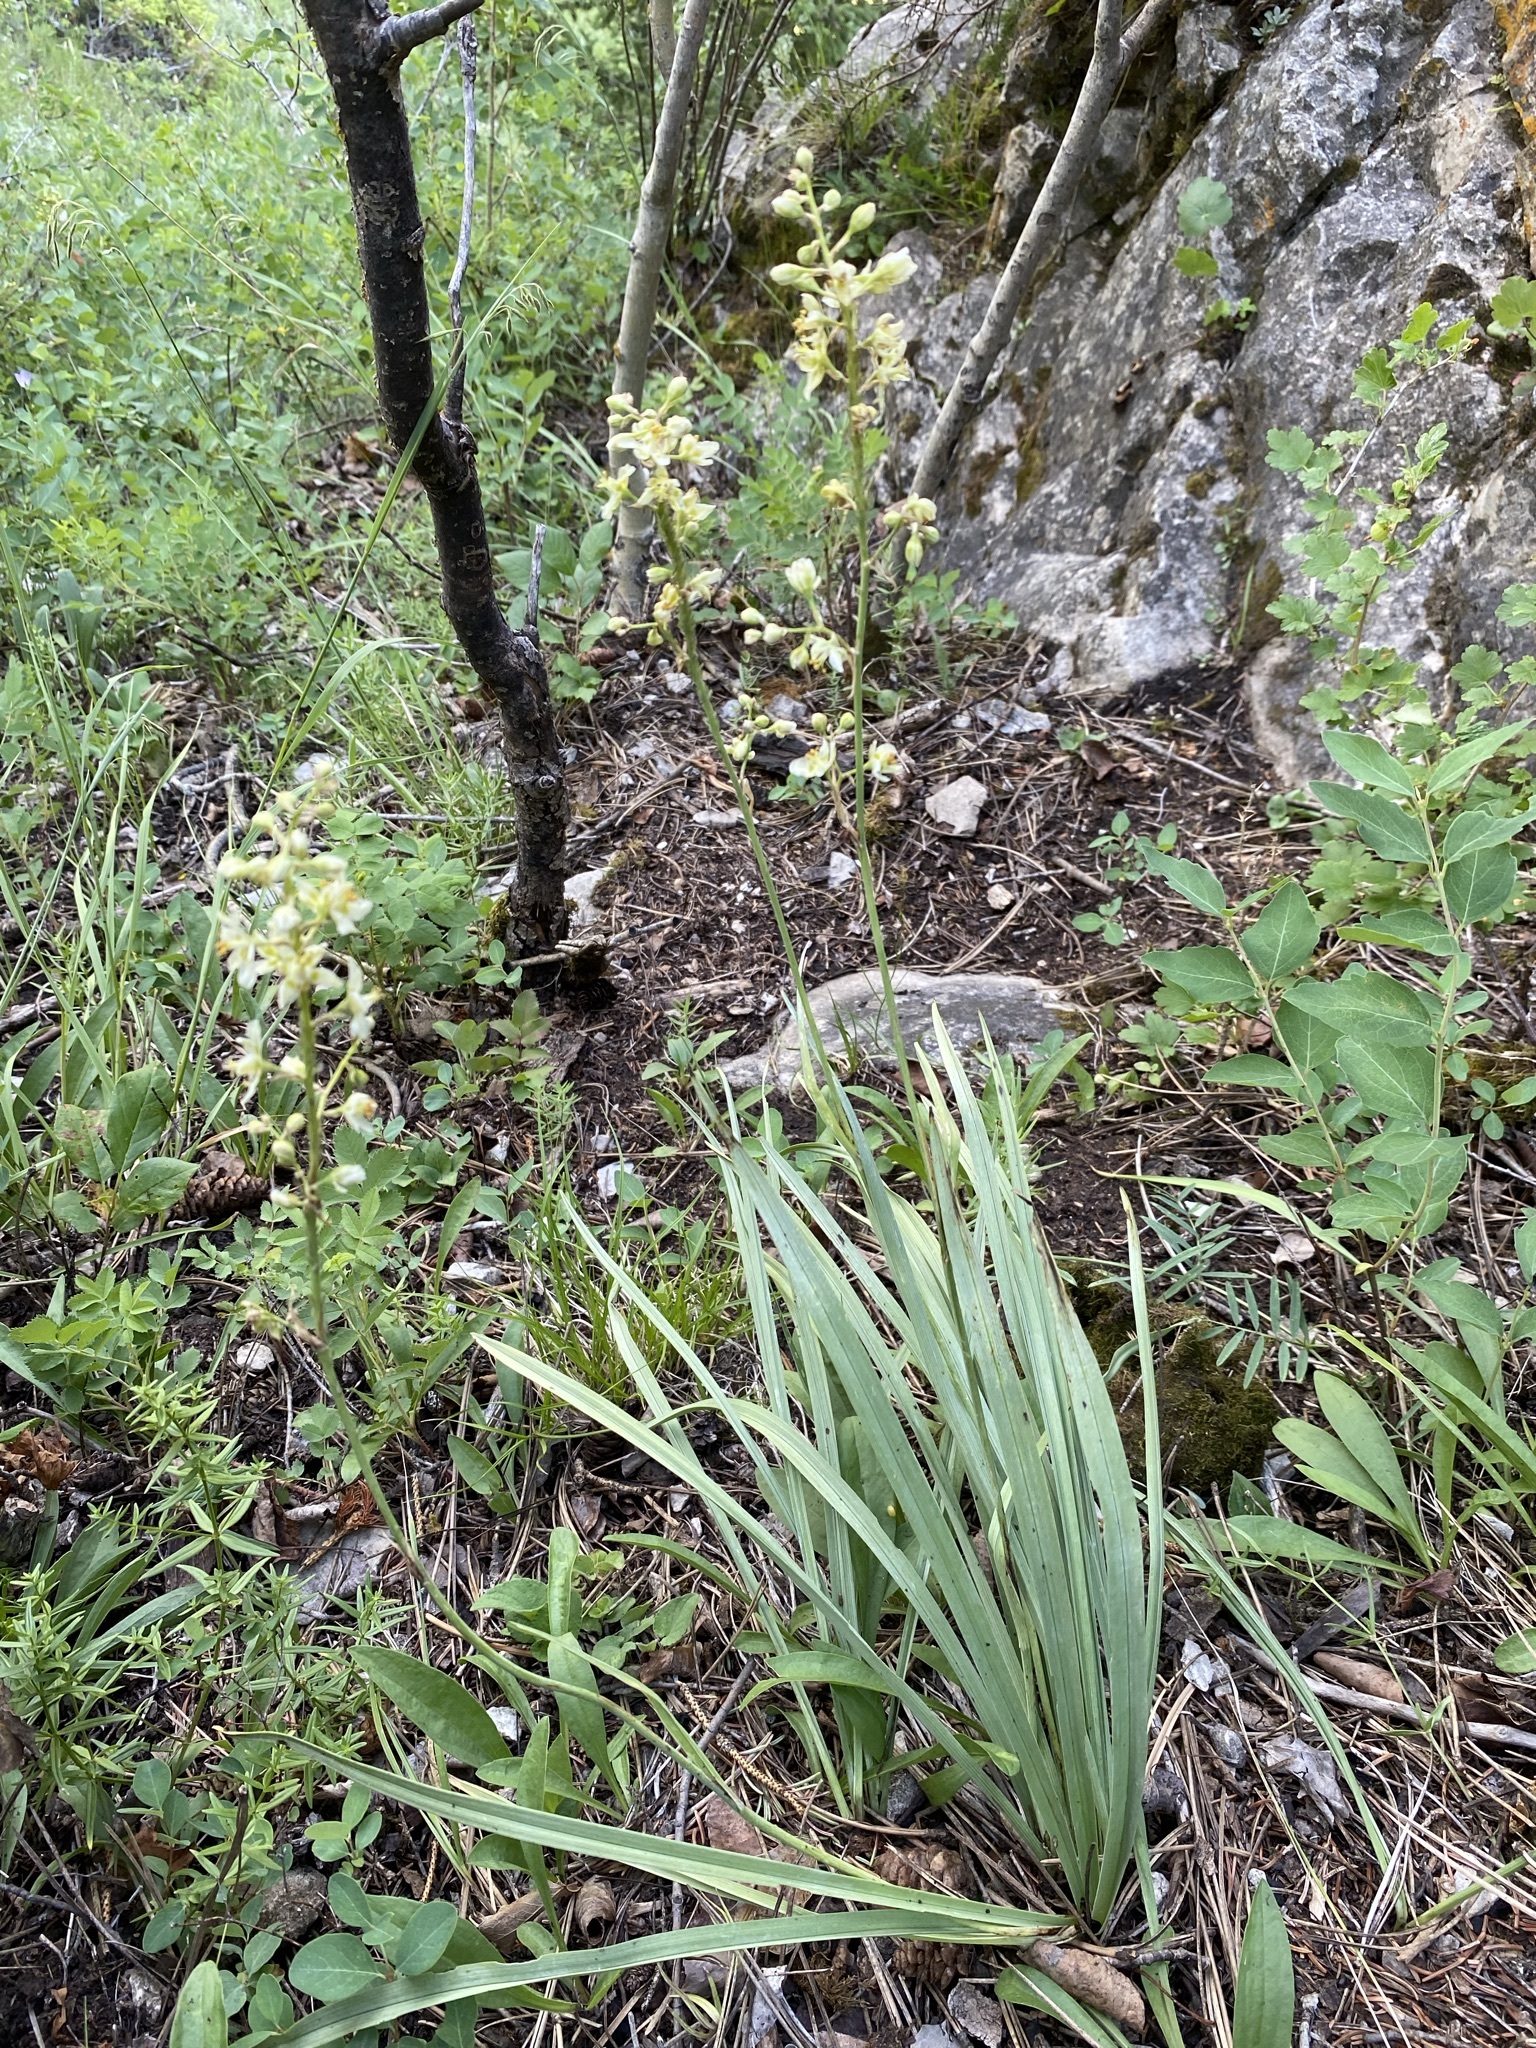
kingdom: Plantae
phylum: Tracheophyta
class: Liliopsida
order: Liliales
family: Melanthiaceae
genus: Anticlea
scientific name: Anticlea elegans
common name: Mountain death camas
